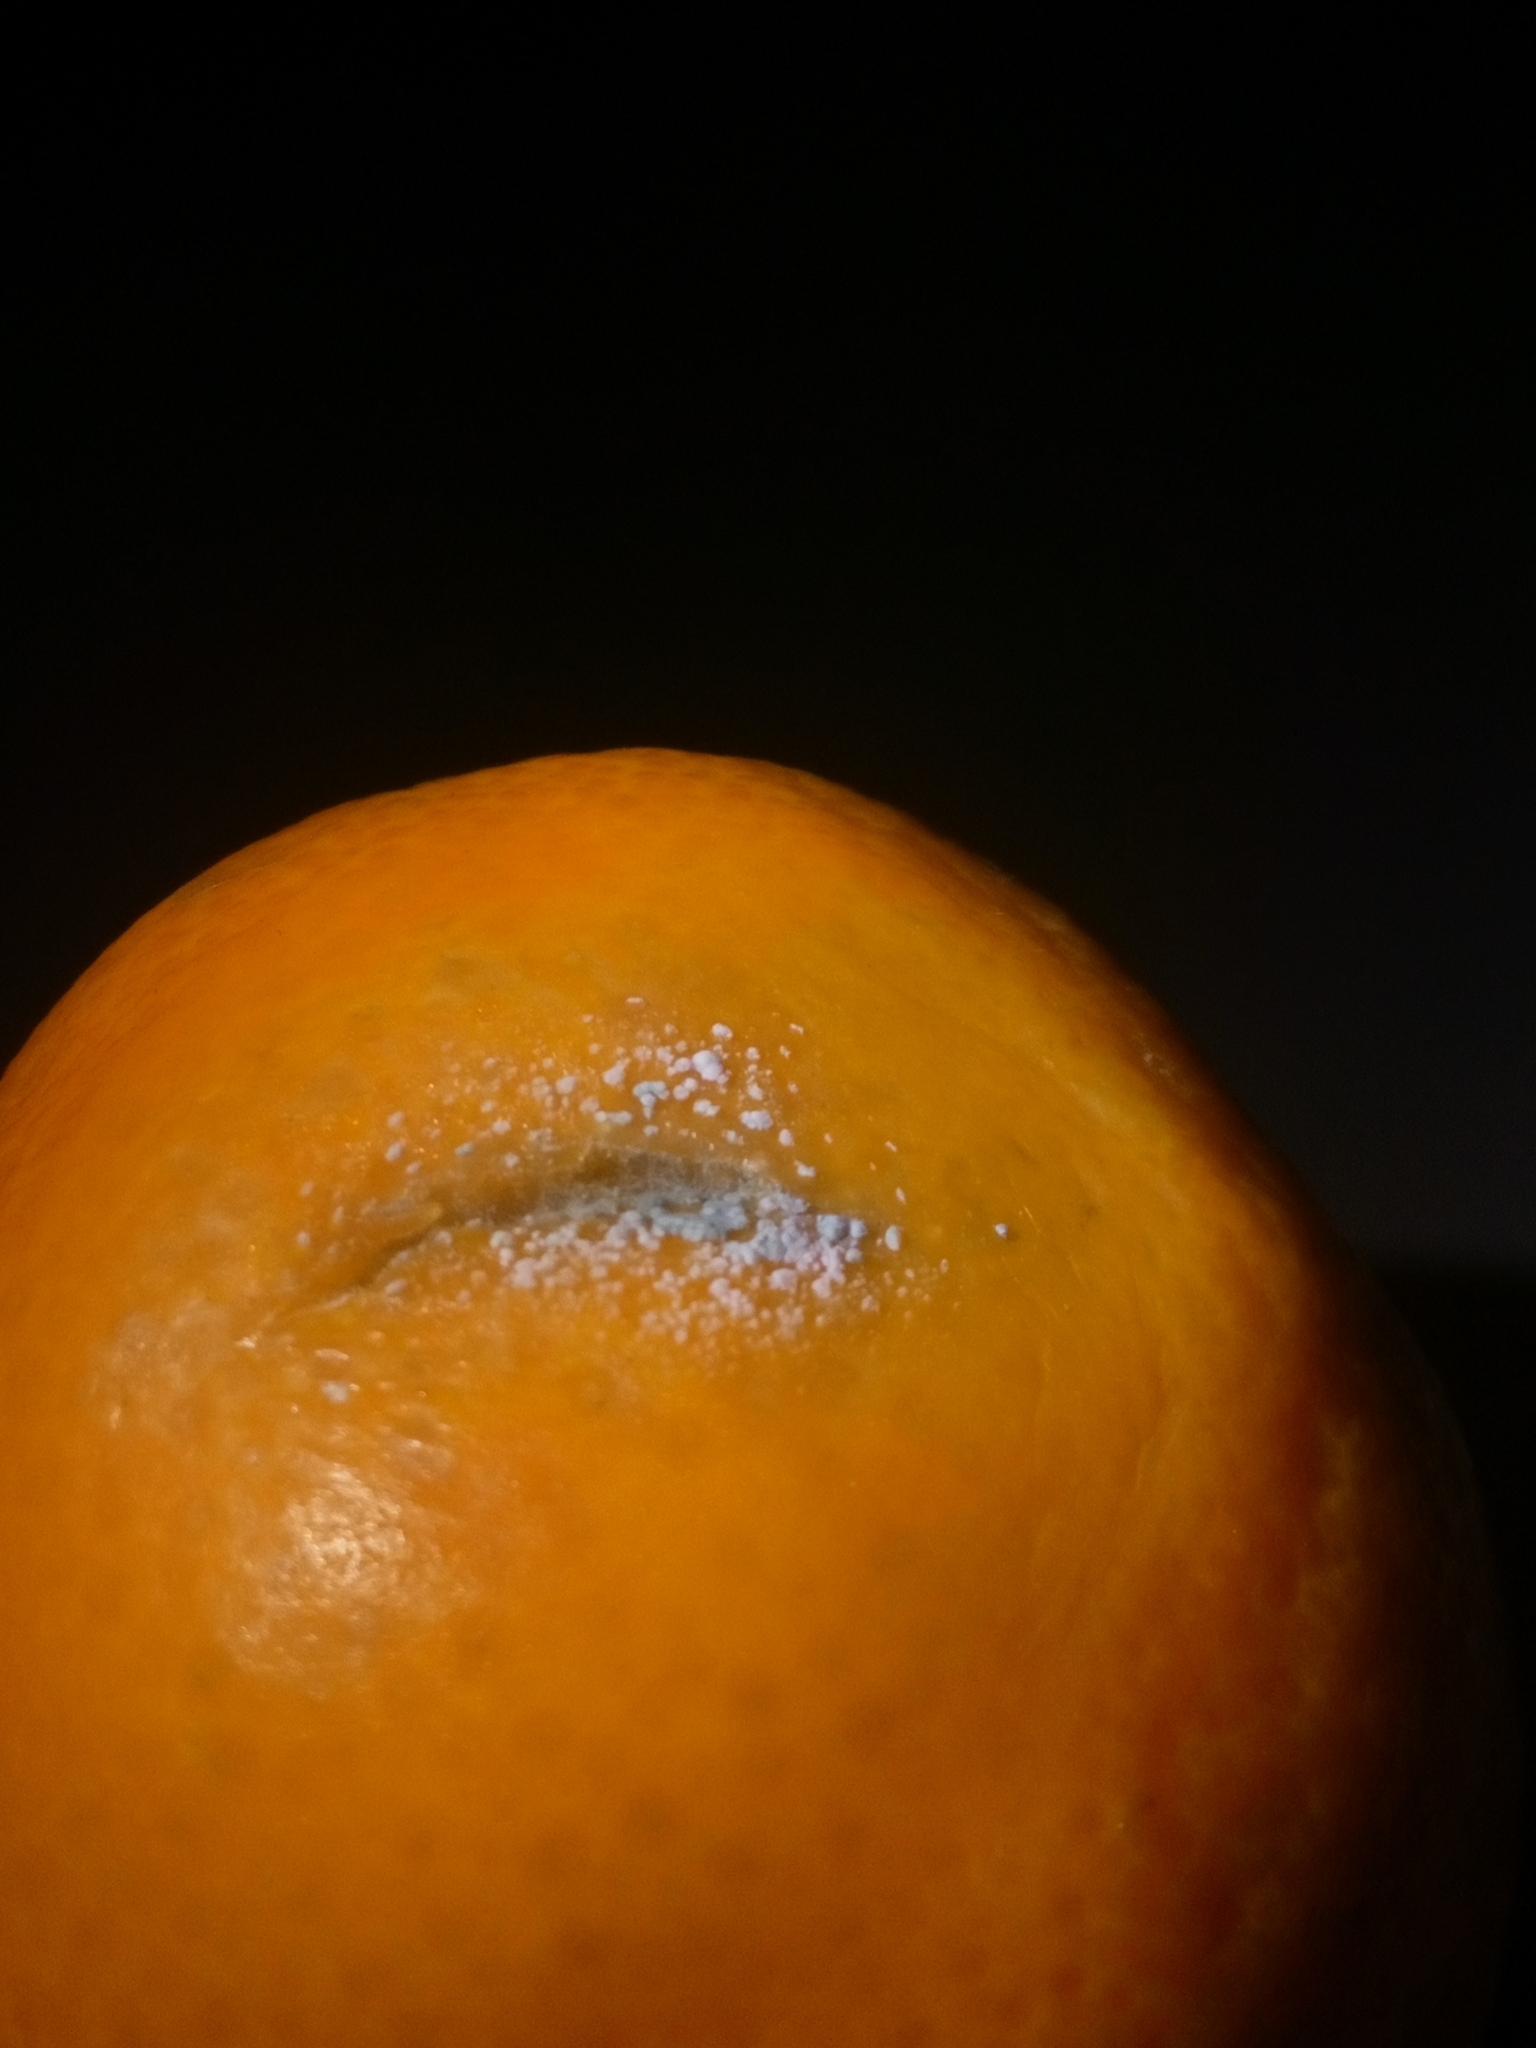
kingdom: Fungi
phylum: Ascomycota
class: Eurotiomycetes
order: Eurotiales
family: Aspergillaceae
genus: Penicillium
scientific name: Penicillium
